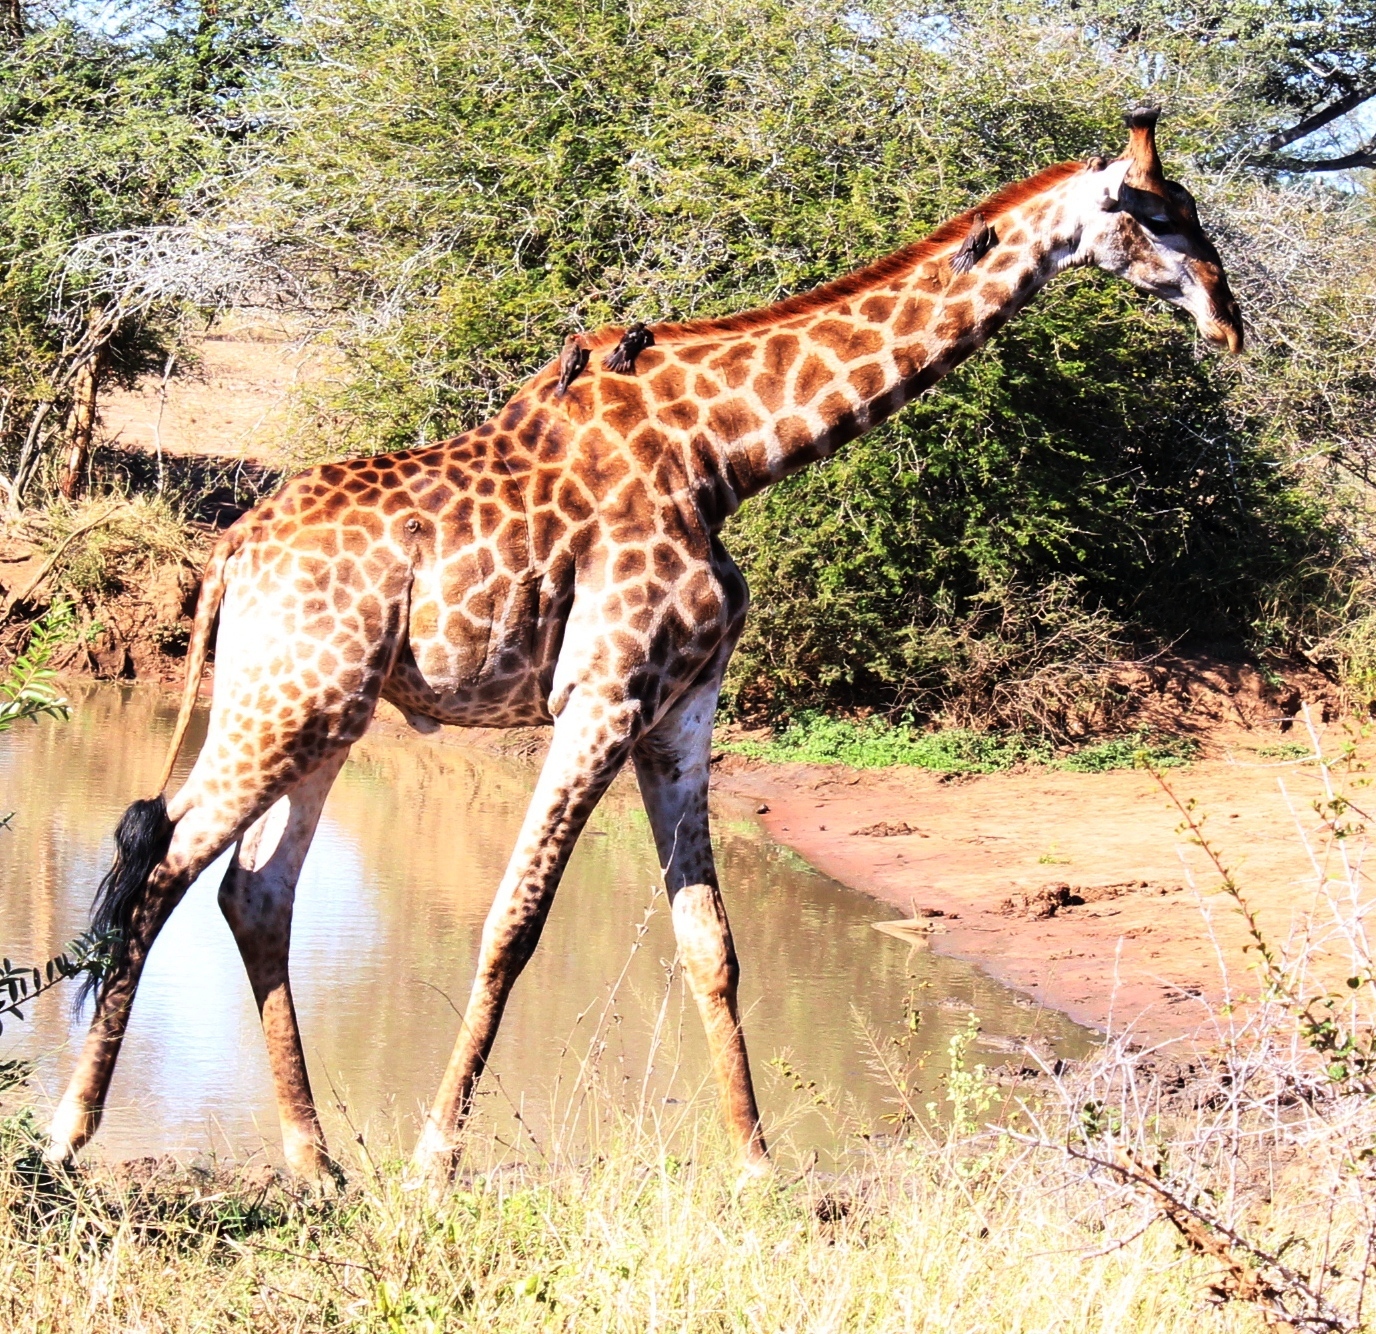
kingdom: Animalia
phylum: Chordata
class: Mammalia
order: Artiodactyla
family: Giraffidae
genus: Giraffa
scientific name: Giraffa giraffa
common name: Southern giraffe
